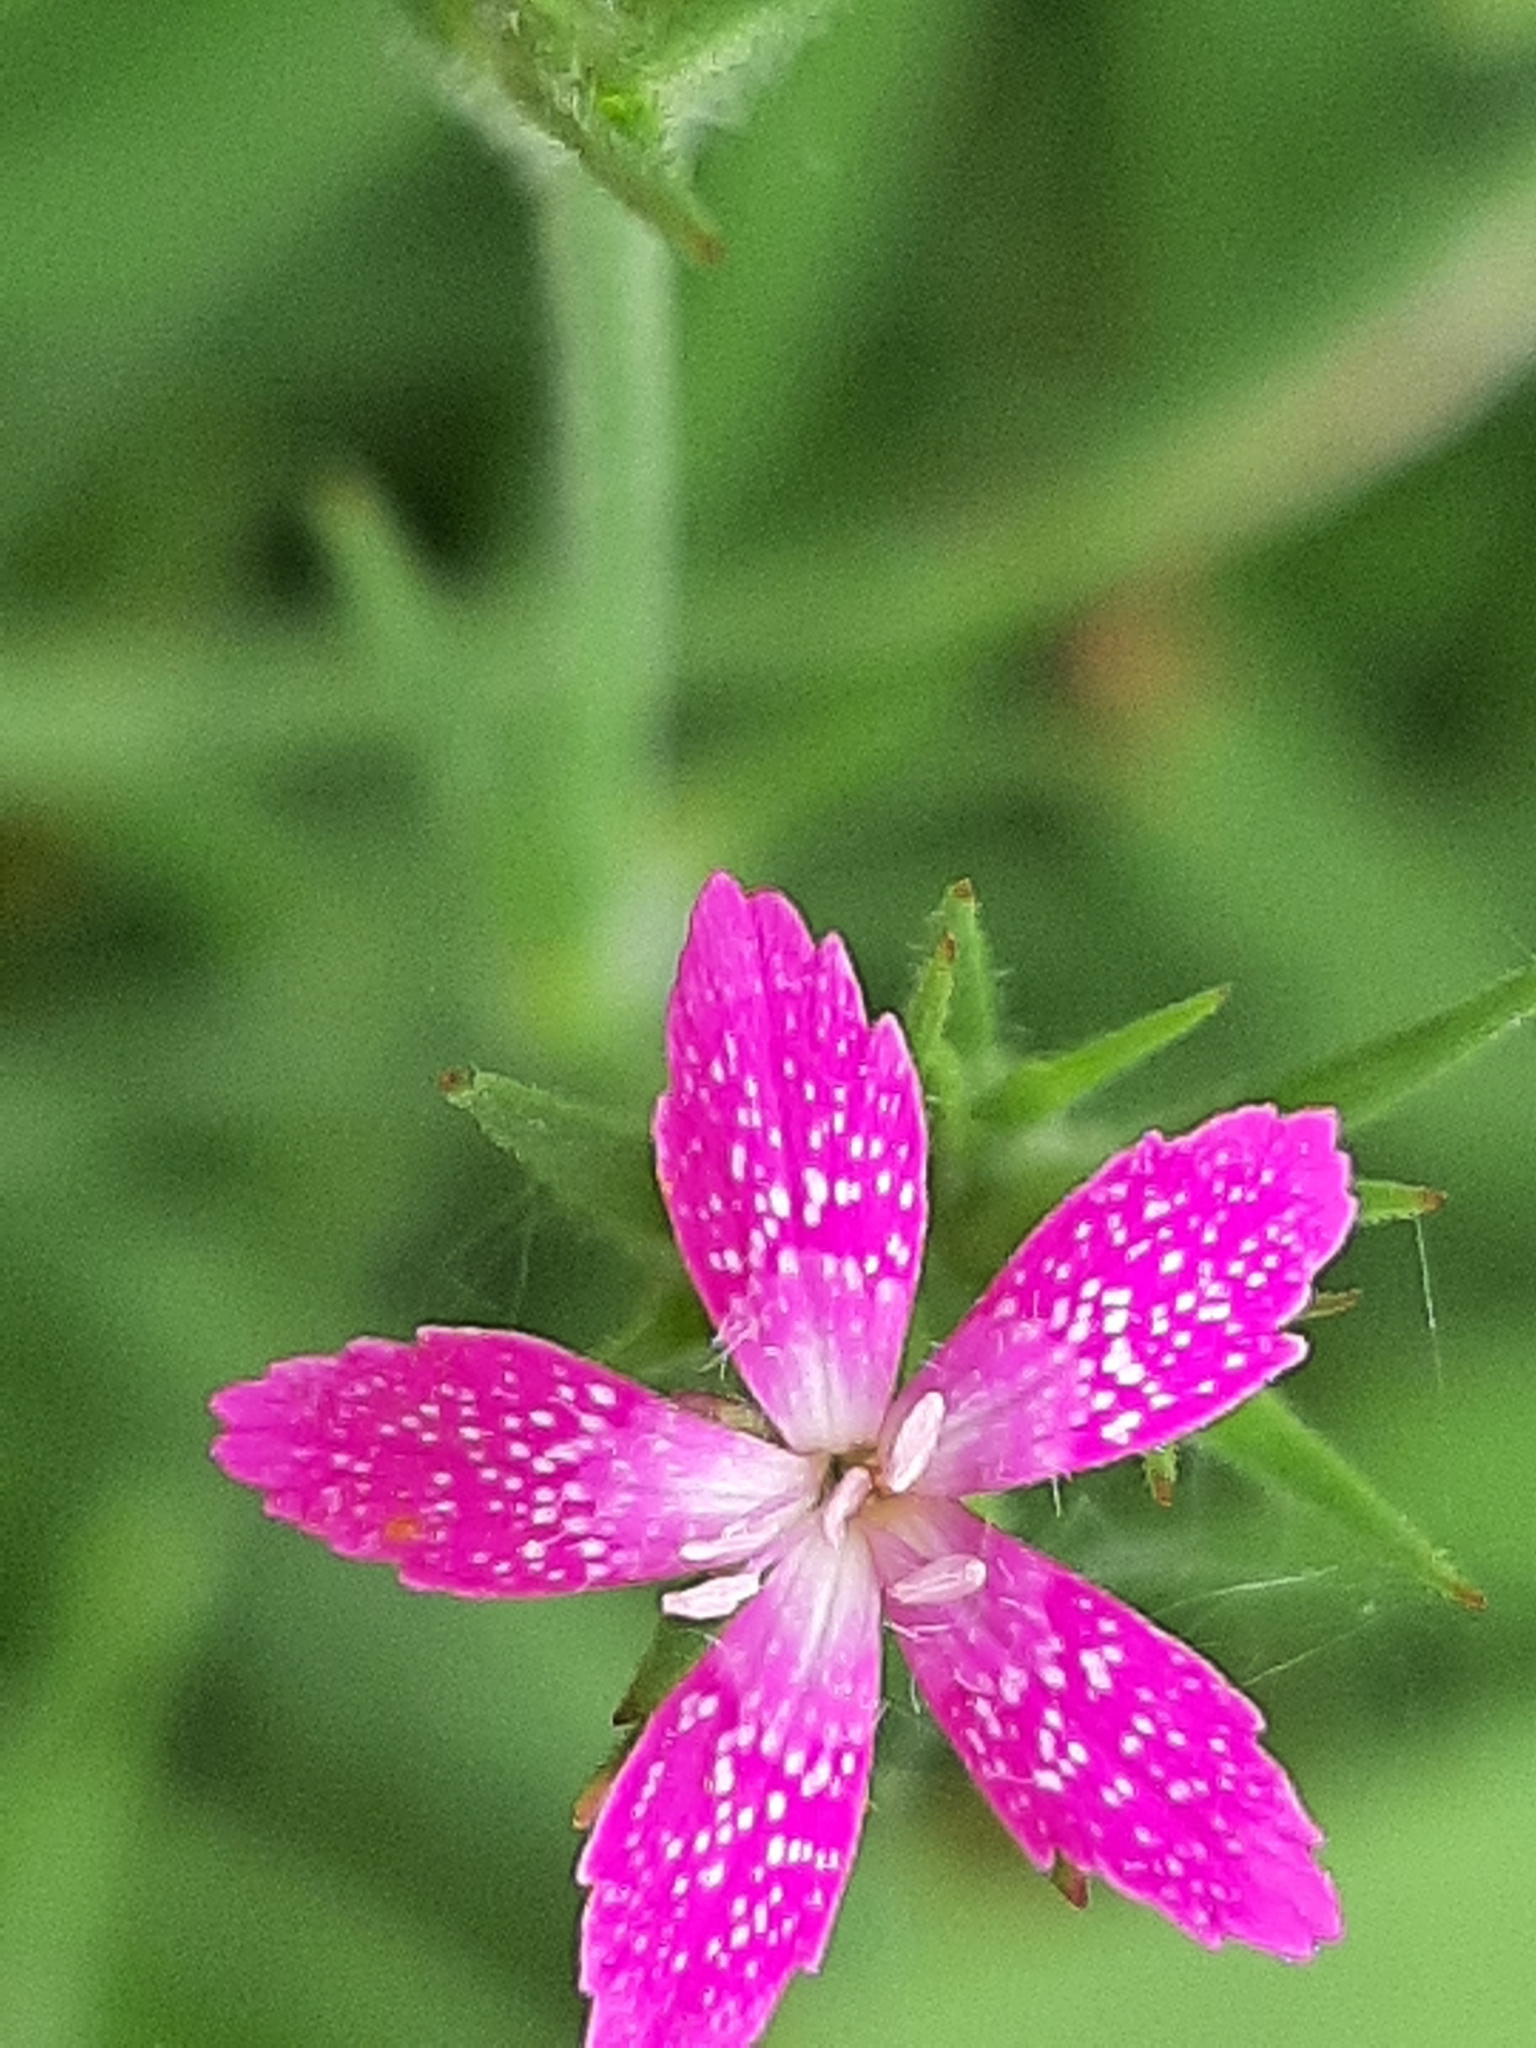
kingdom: Plantae
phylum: Tracheophyta
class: Magnoliopsida
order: Caryophyllales
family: Caryophyllaceae
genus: Dianthus
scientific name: Dianthus armeria
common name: Deptford pink
